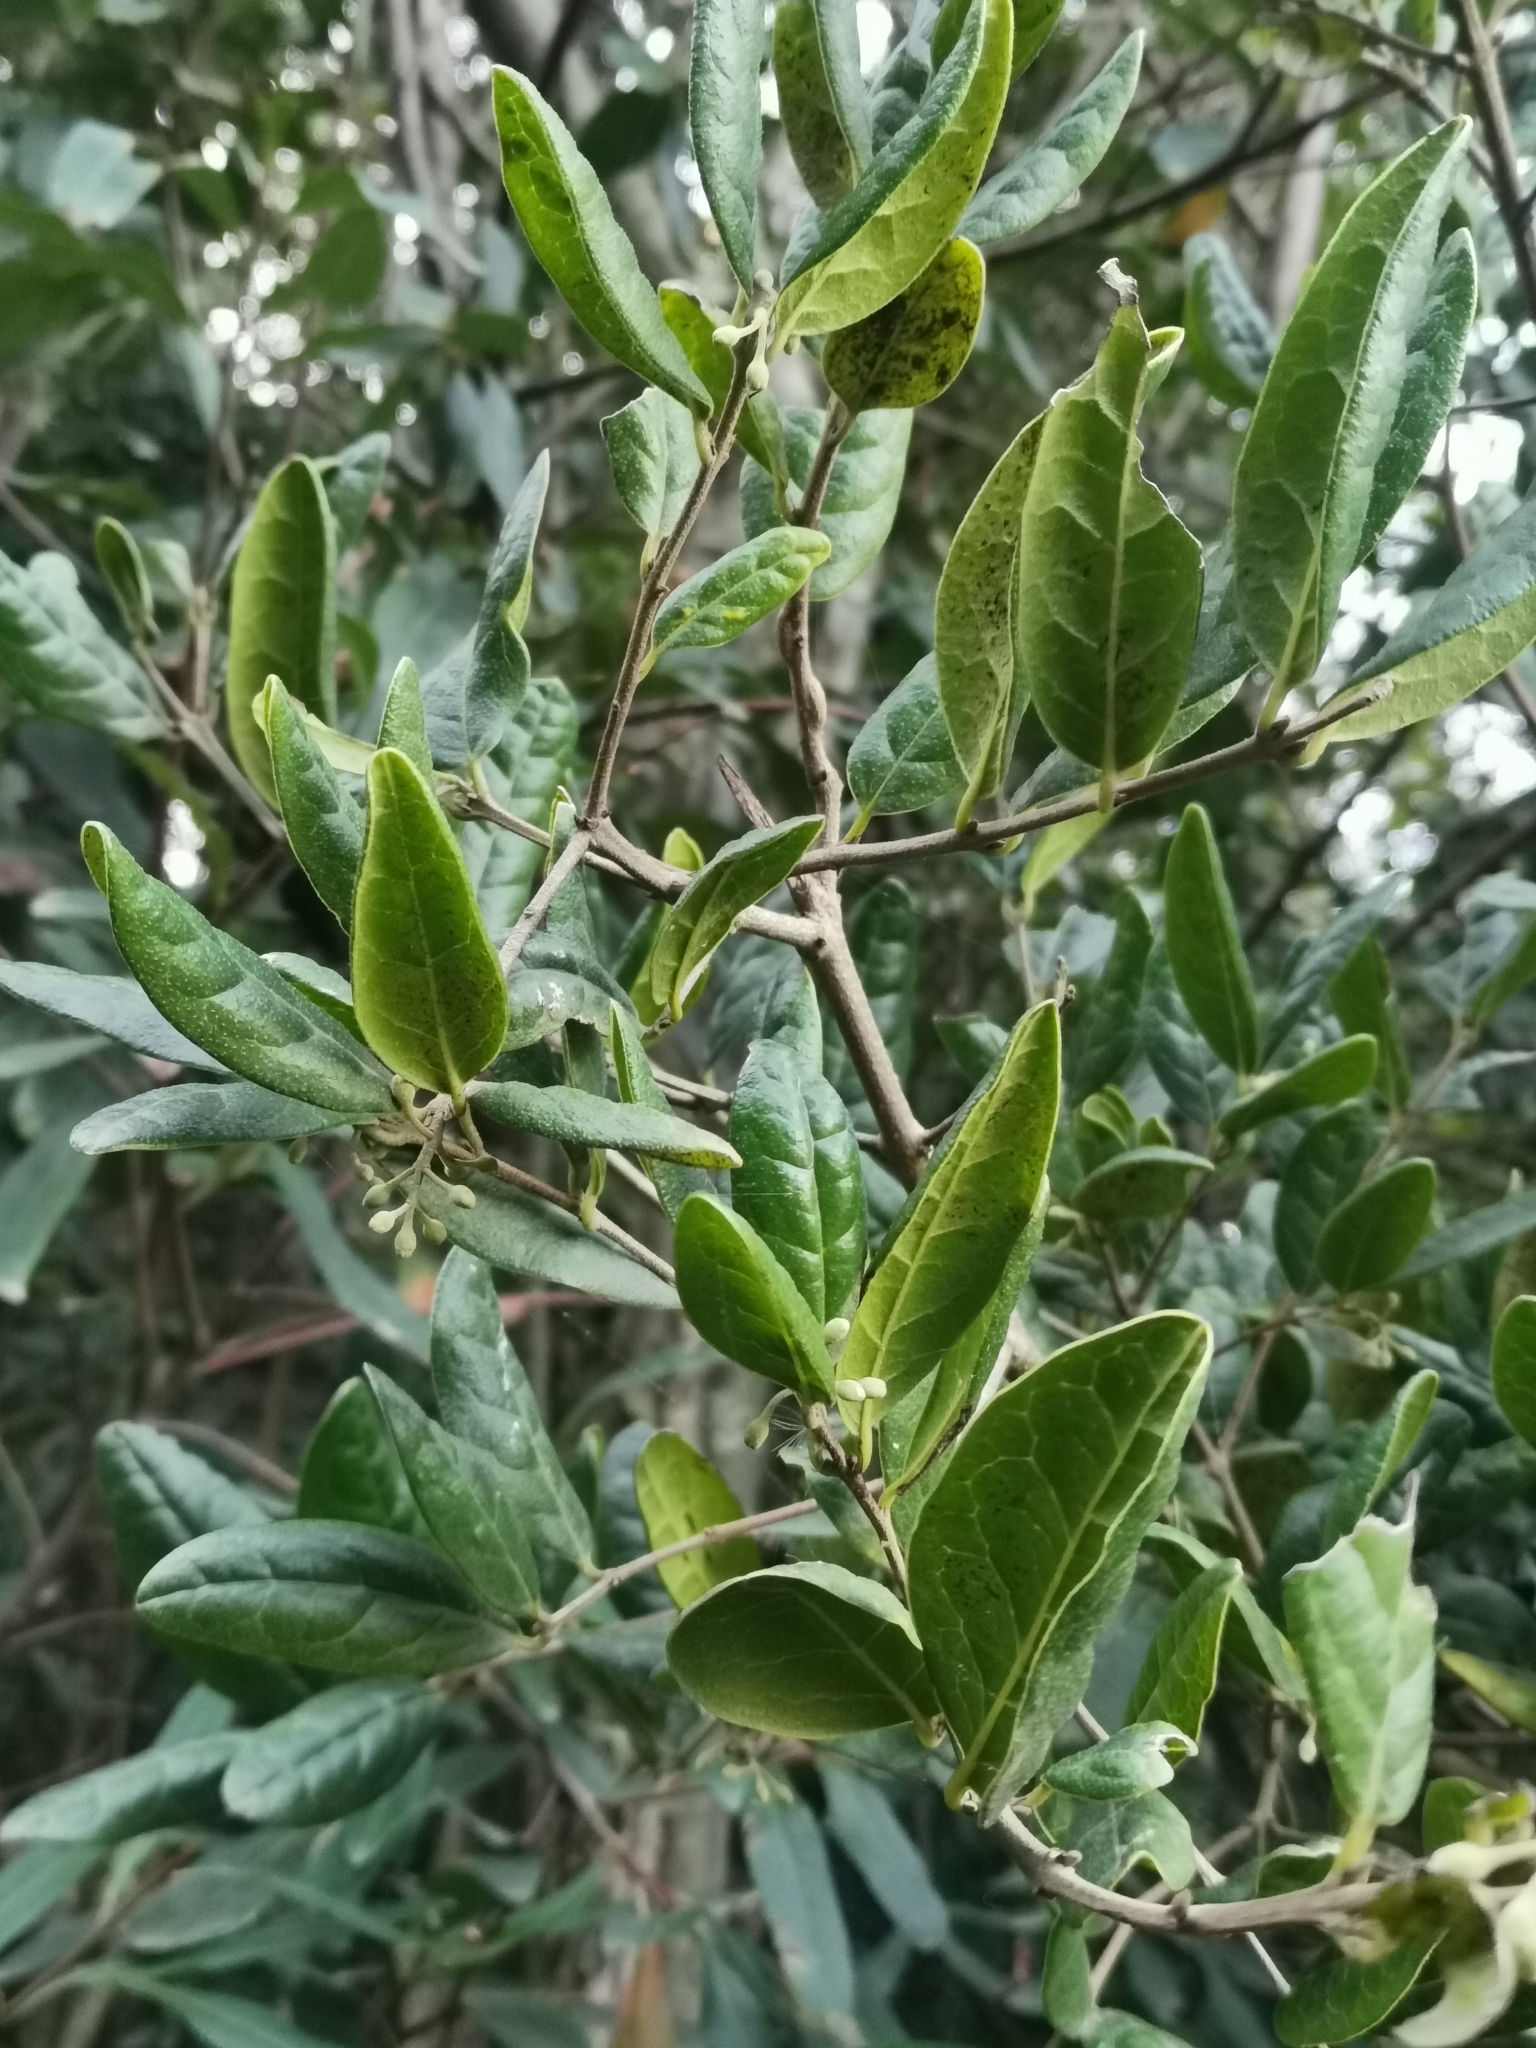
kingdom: Plantae
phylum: Tracheophyta
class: Magnoliopsida
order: Laurales
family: Monimiaceae
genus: Peumus
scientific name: Peumus boldus
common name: Boldo
